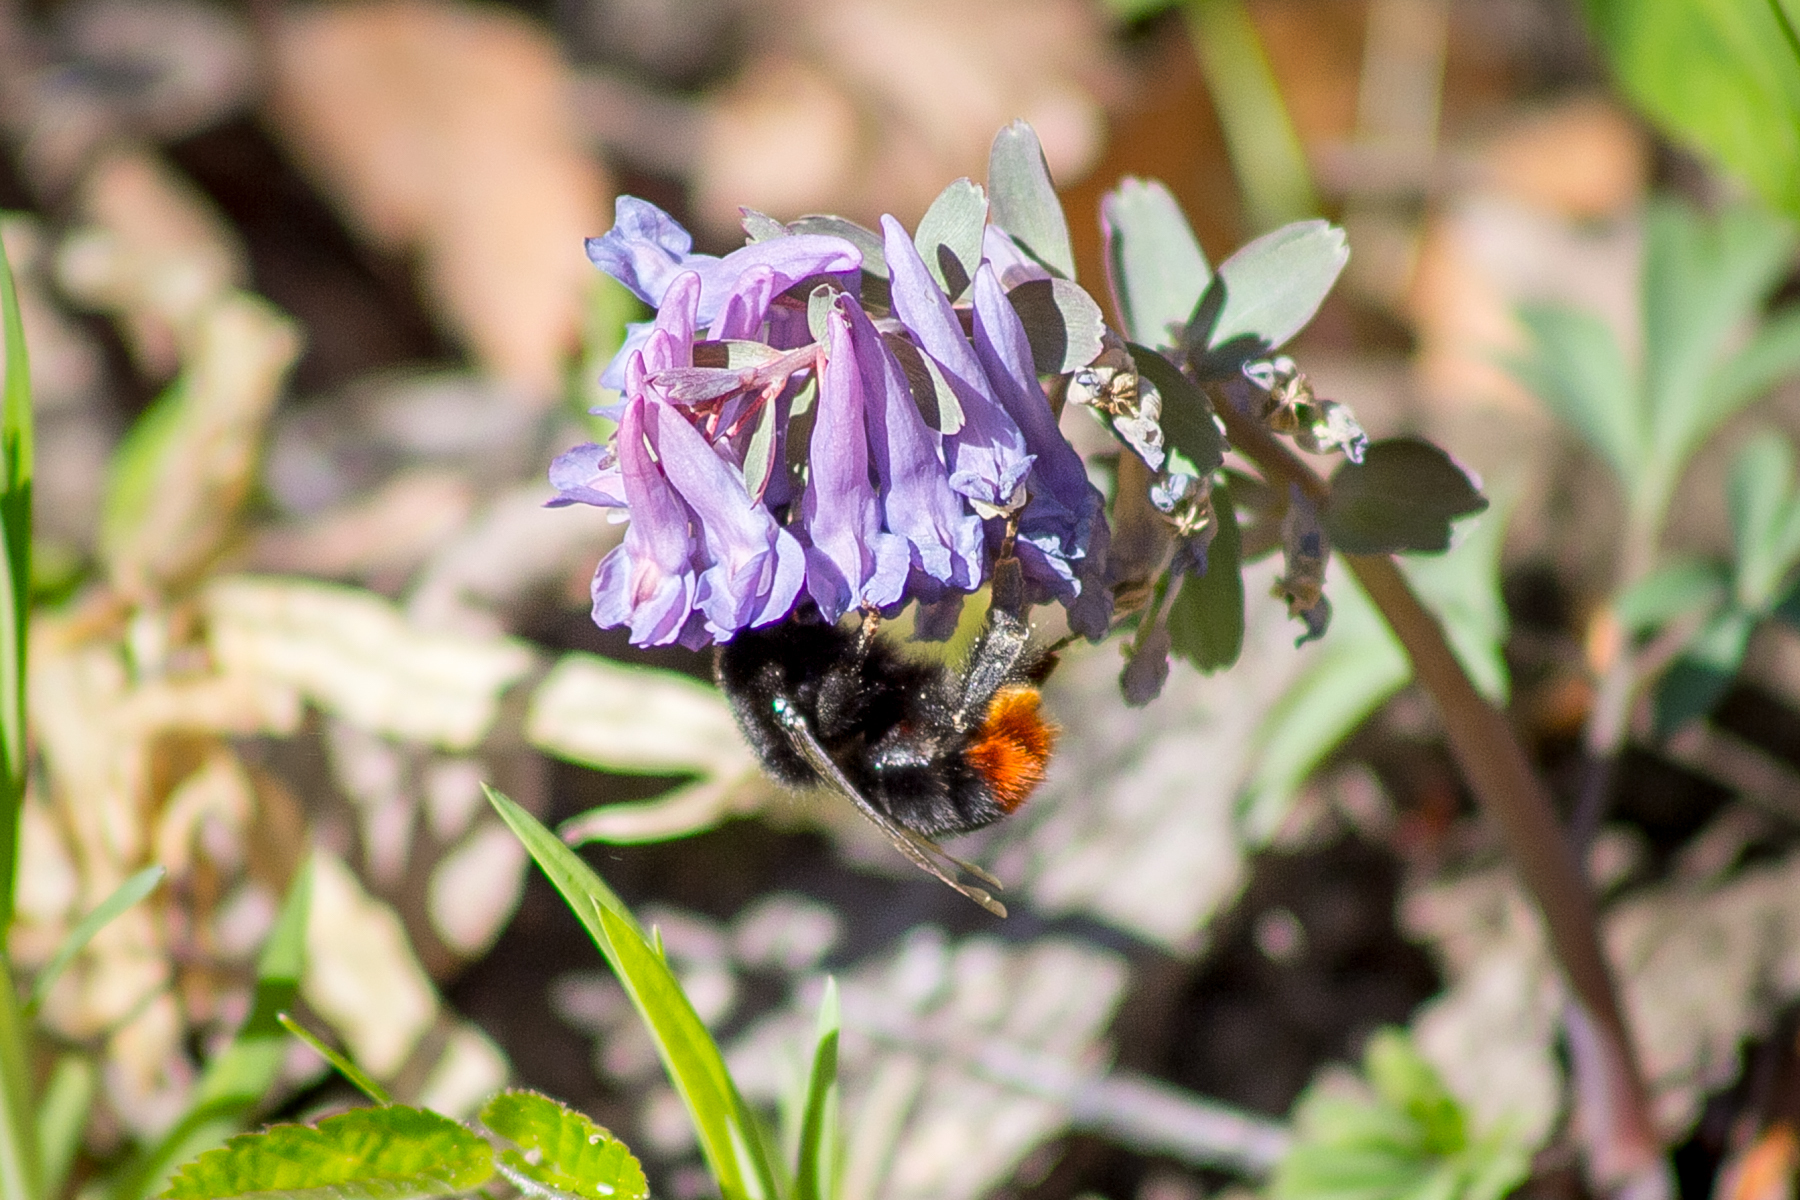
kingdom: Animalia
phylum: Arthropoda
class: Insecta
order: Hymenoptera
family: Apidae
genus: Bombus
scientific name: Bombus lapidarius
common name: Large red-tailed humble-bee
